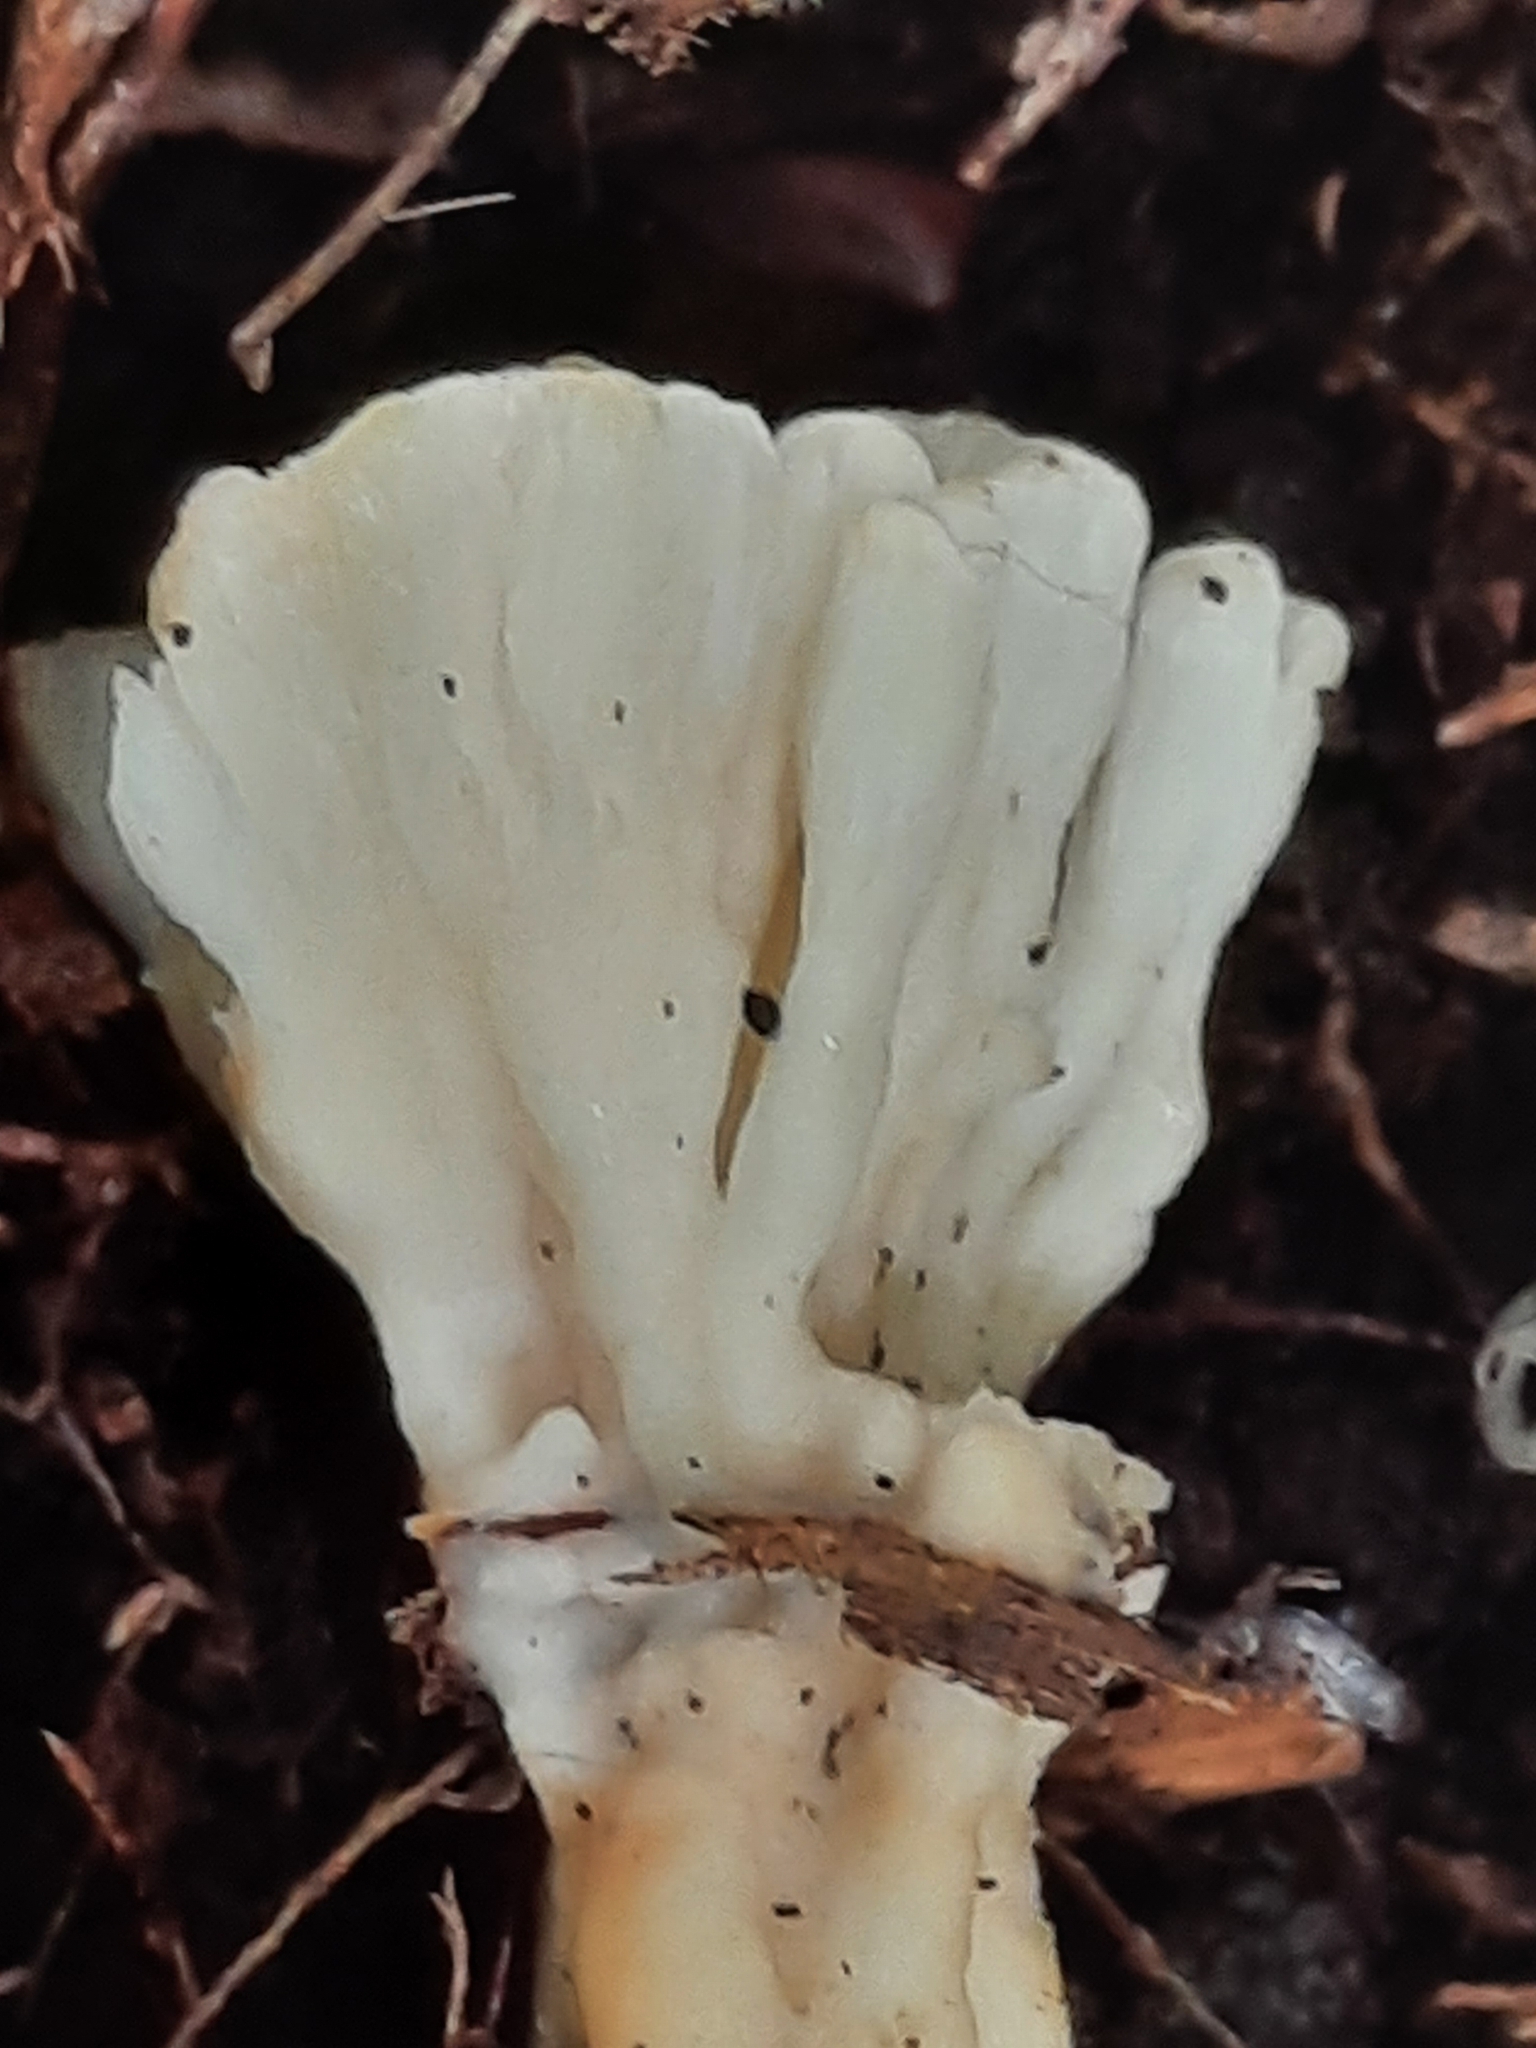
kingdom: Fungi
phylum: Basidiomycota
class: Agaricomycetes
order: Sebacinales
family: Sebacinaceae
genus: Sebacina
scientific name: Sebacina schweinitzii
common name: Jellied false coral fungus
